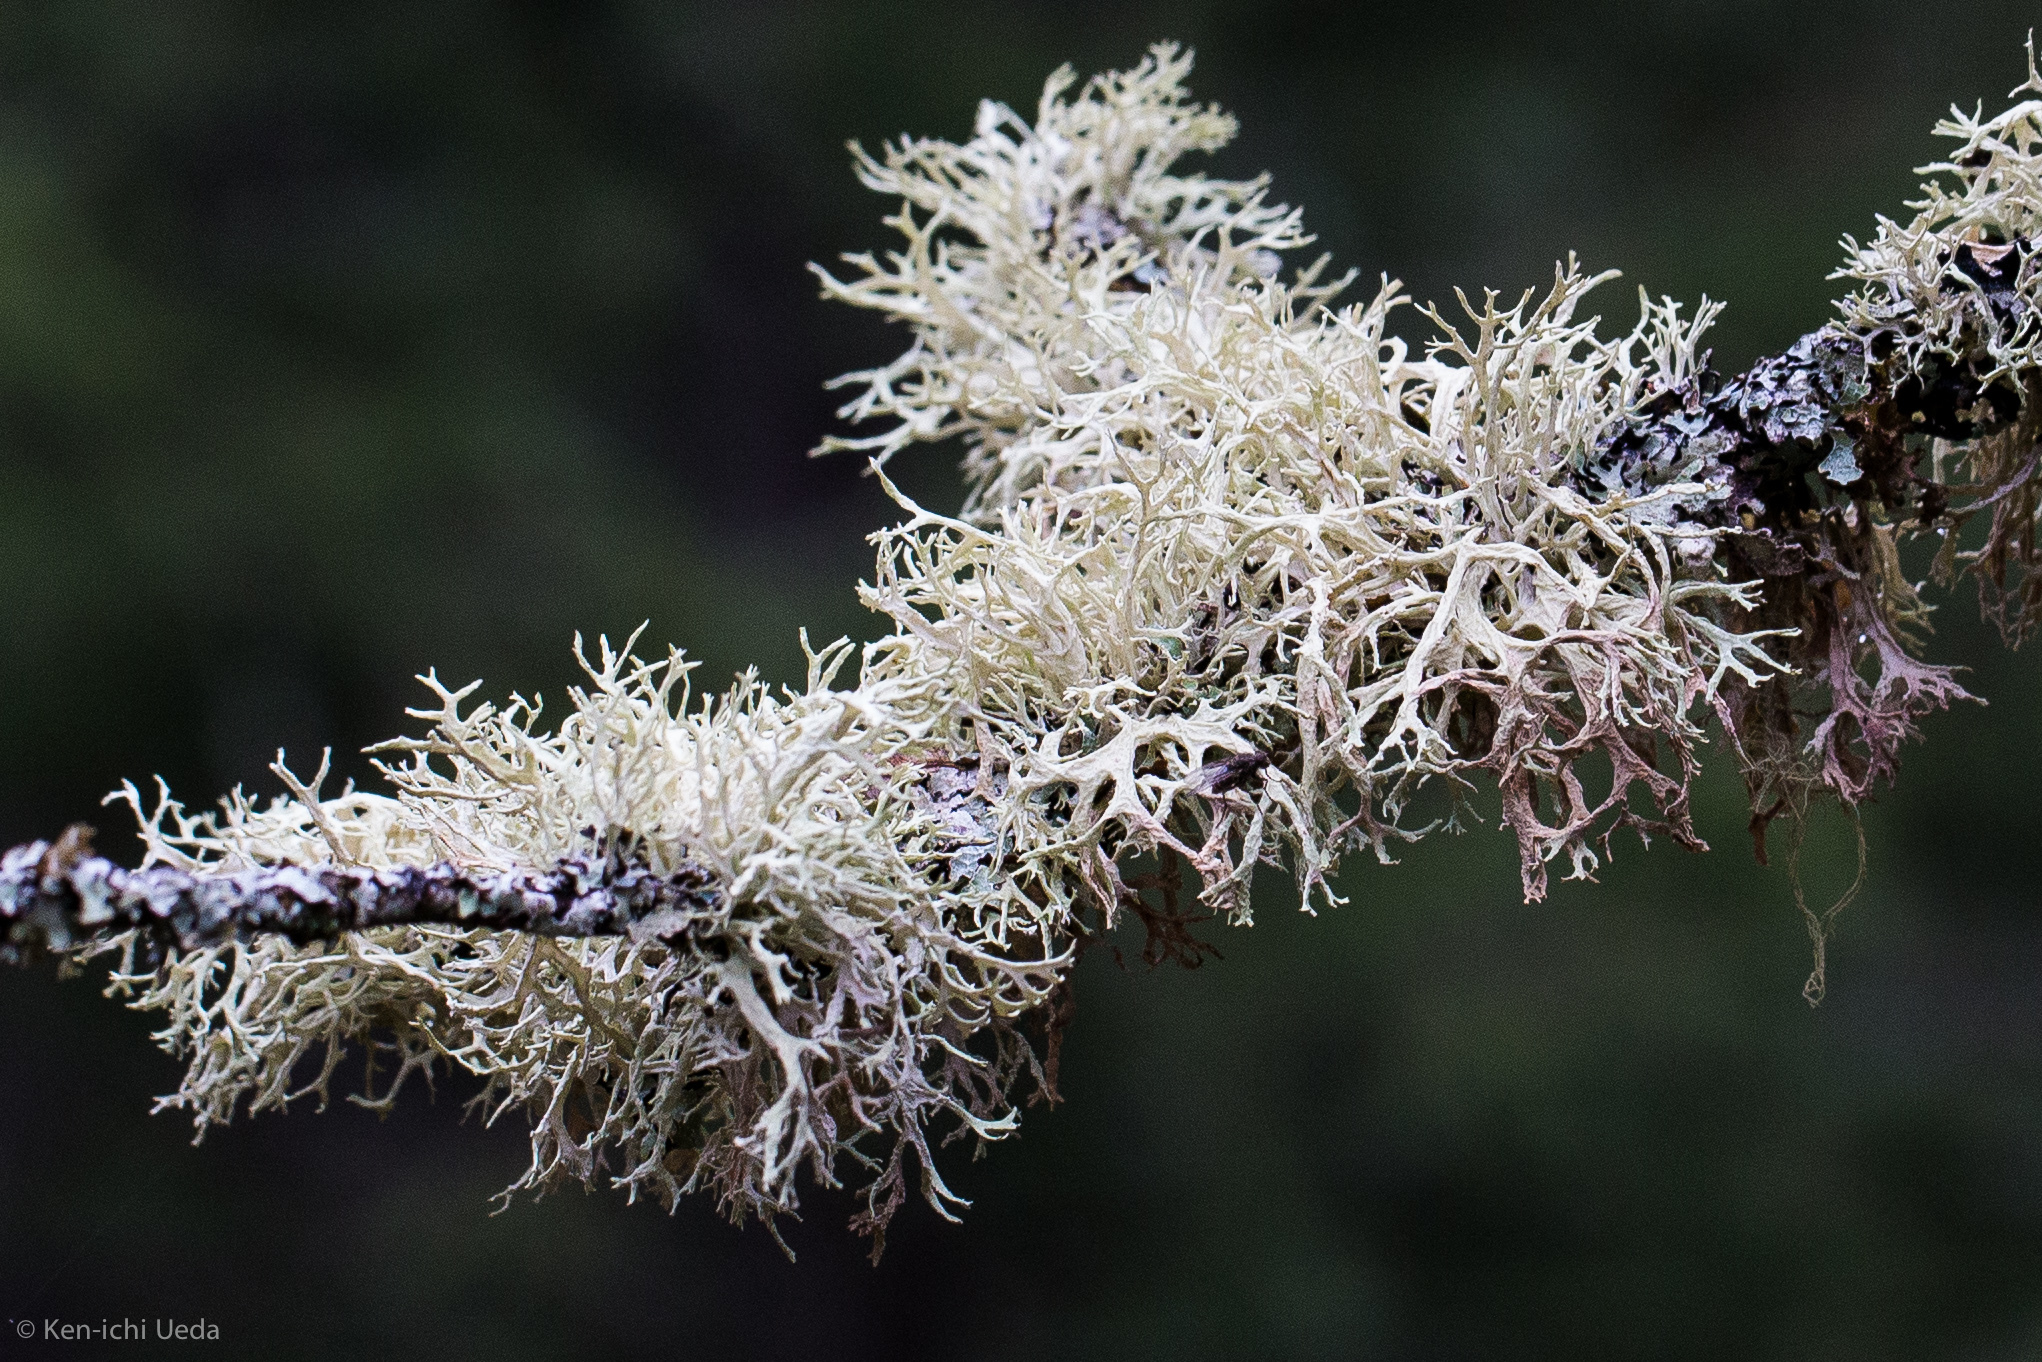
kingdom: Fungi
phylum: Ascomycota
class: Lecanoromycetes
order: Lecanorales
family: Parmeliaceae
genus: Evernia
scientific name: Evernia prunastri
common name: Oak moss
